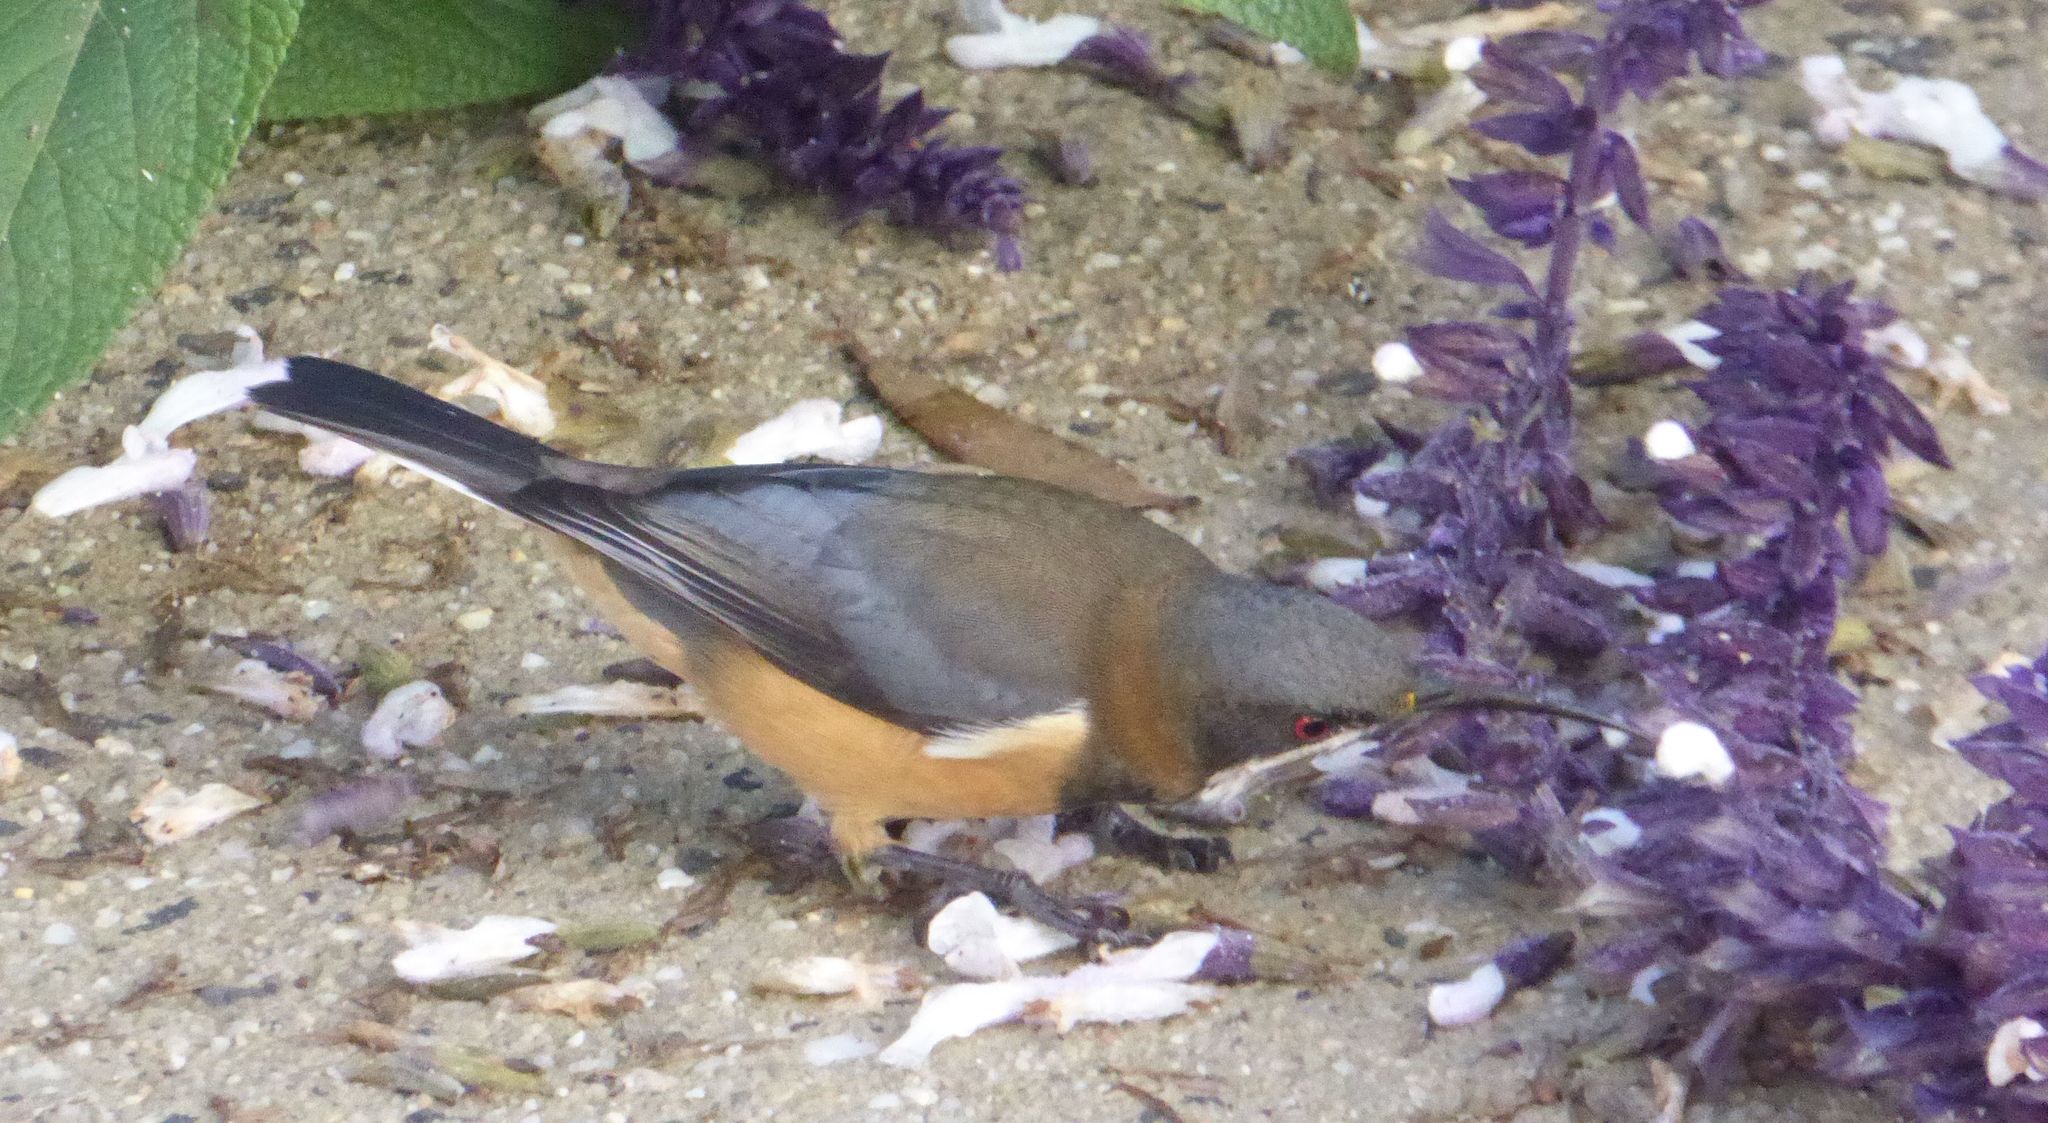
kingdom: Animalia
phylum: Chordata
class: Aves
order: Passeriformes
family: Meliphagidae
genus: Acanthorhynchus
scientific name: Acanthorhynchus tenuirostris
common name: Eastern spinebill
